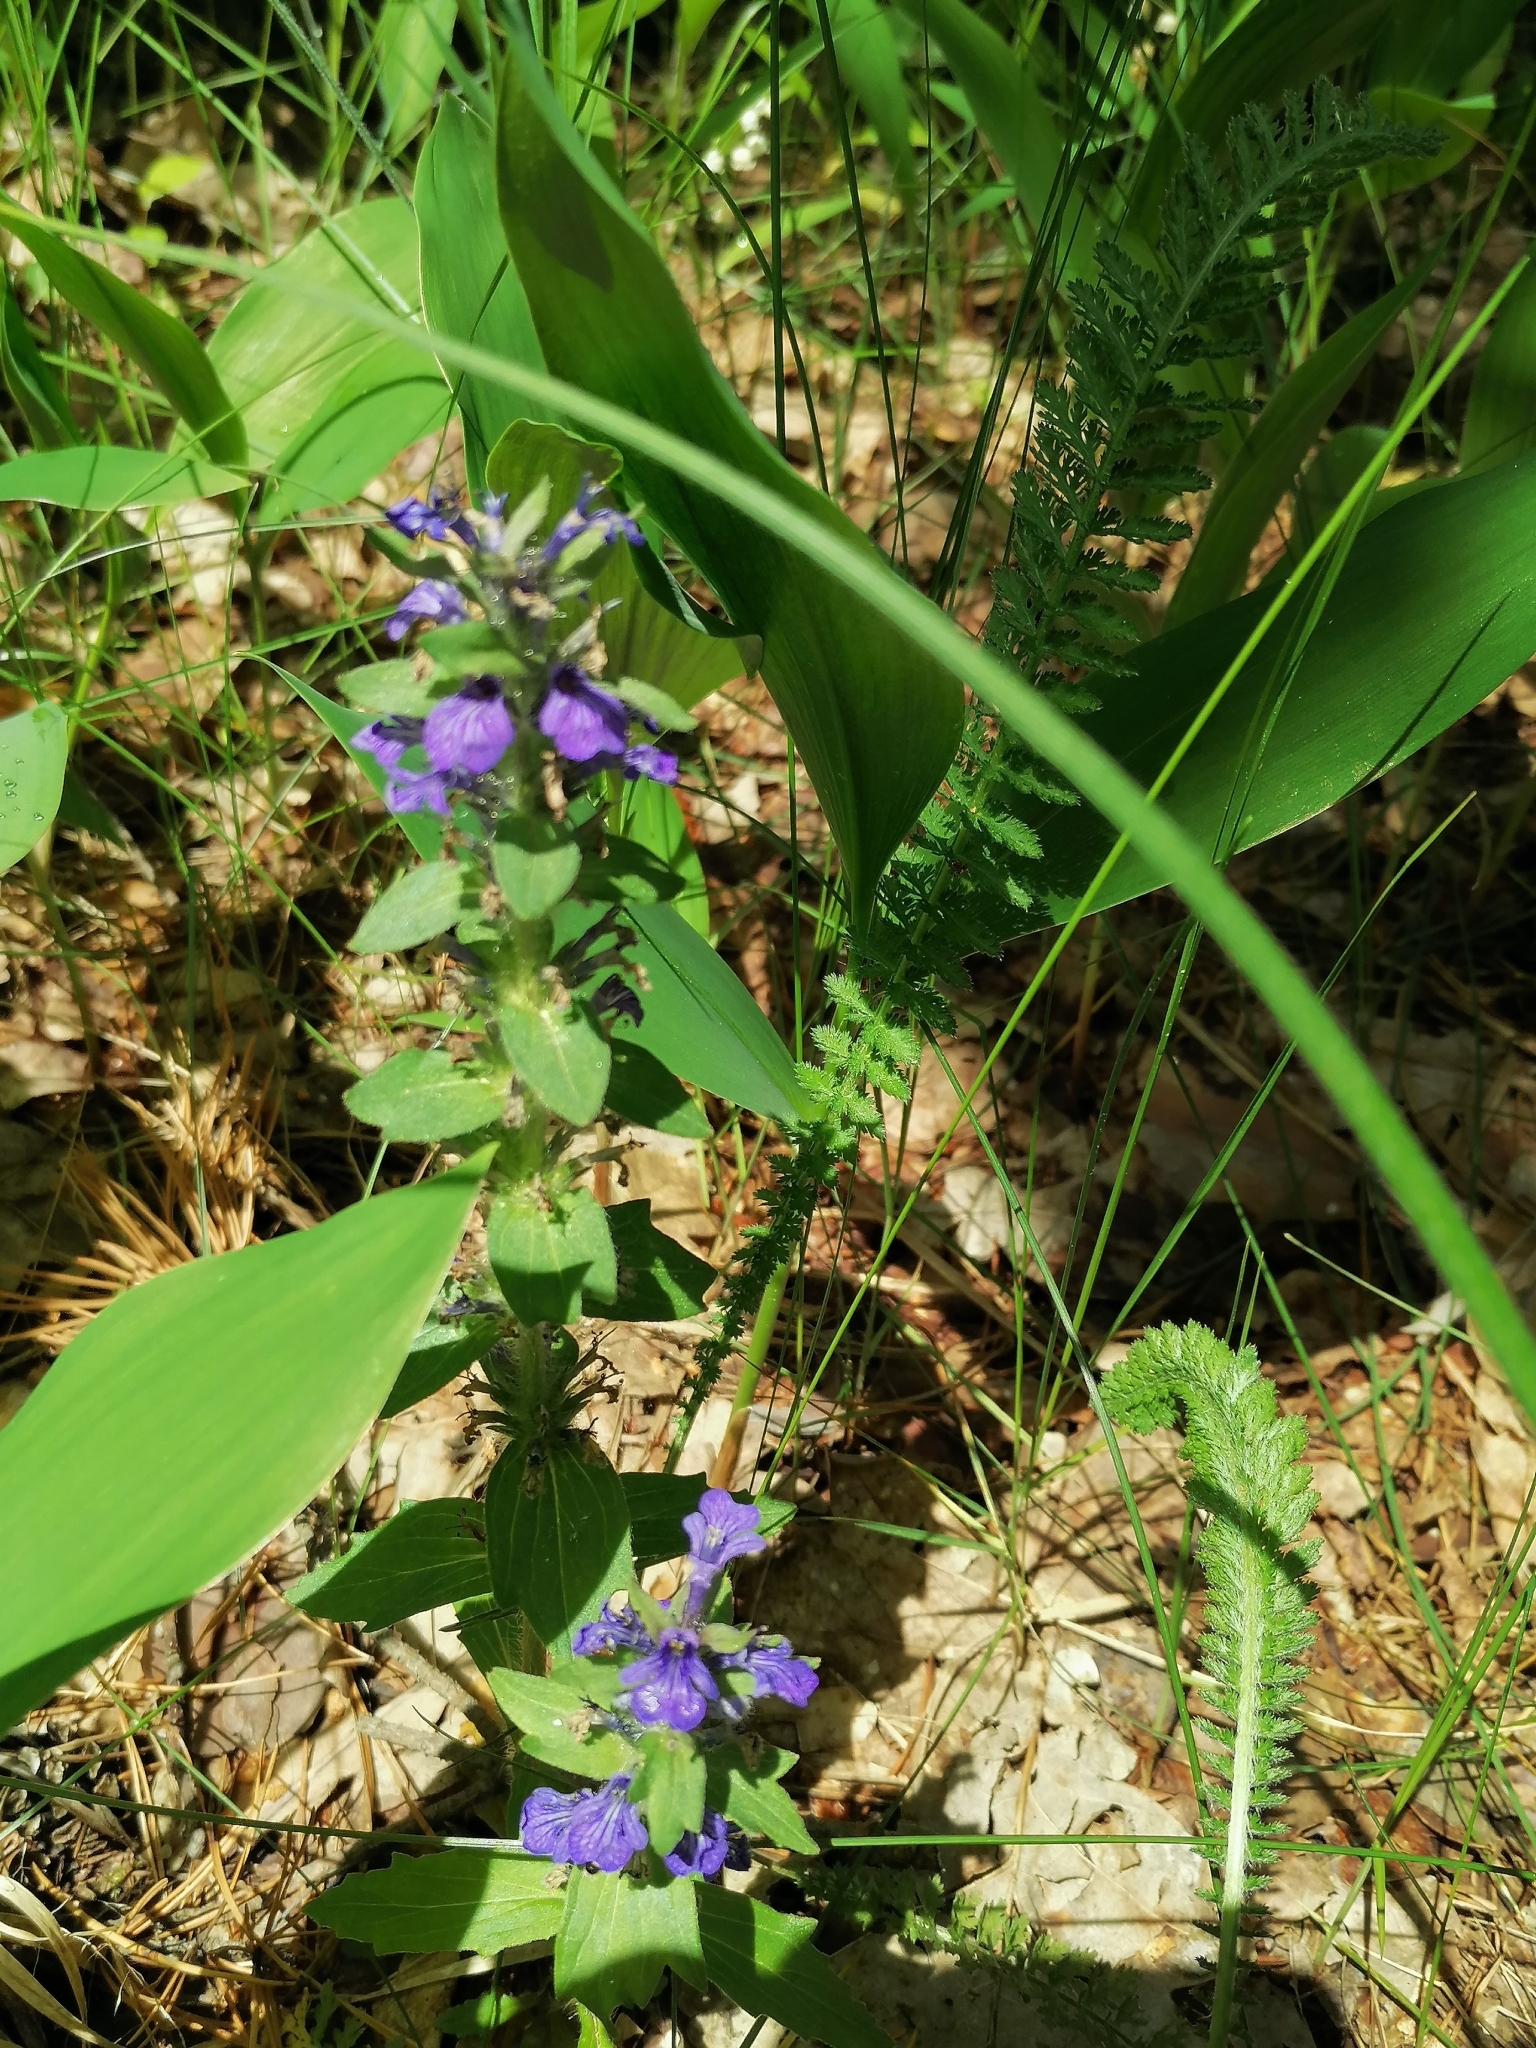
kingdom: Plantae
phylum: Tracheophyta
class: Magnoliopsida
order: Lamiales
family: Lamiaceae
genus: Ajuga
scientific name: Ajuga genevensis
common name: Blue bugle
